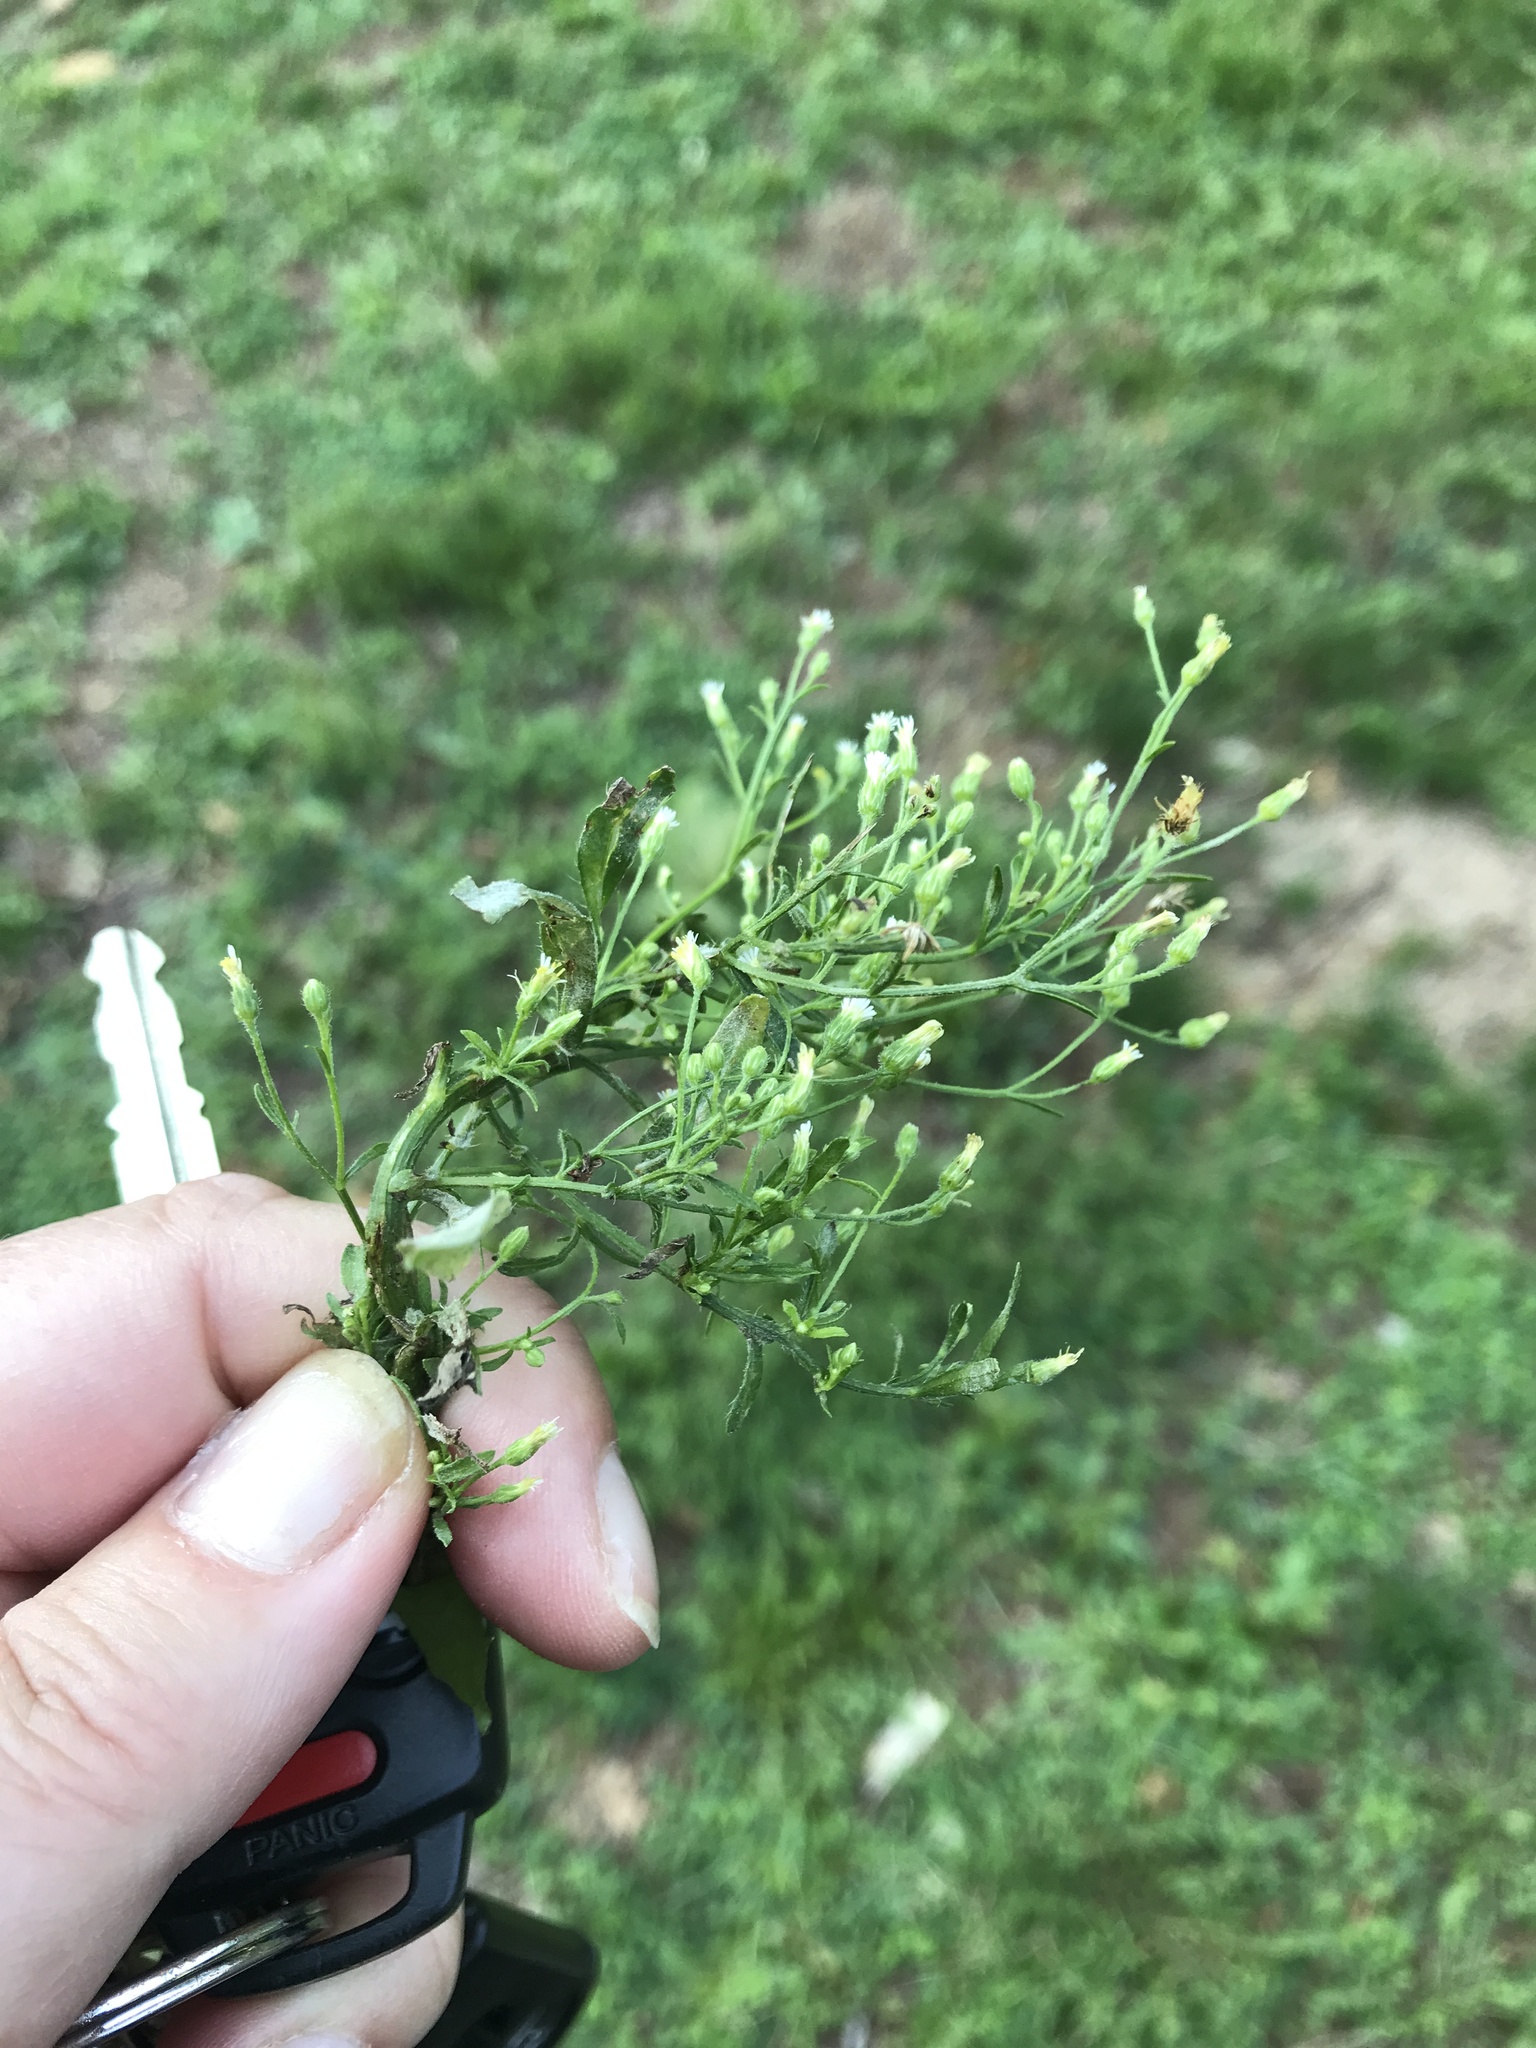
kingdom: Plantae
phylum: Tracheophyta
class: Magnoliopsida
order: Asterales
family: Asteraceae
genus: Erigeron
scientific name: Erigeron canadensis
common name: Canadian fleabane
